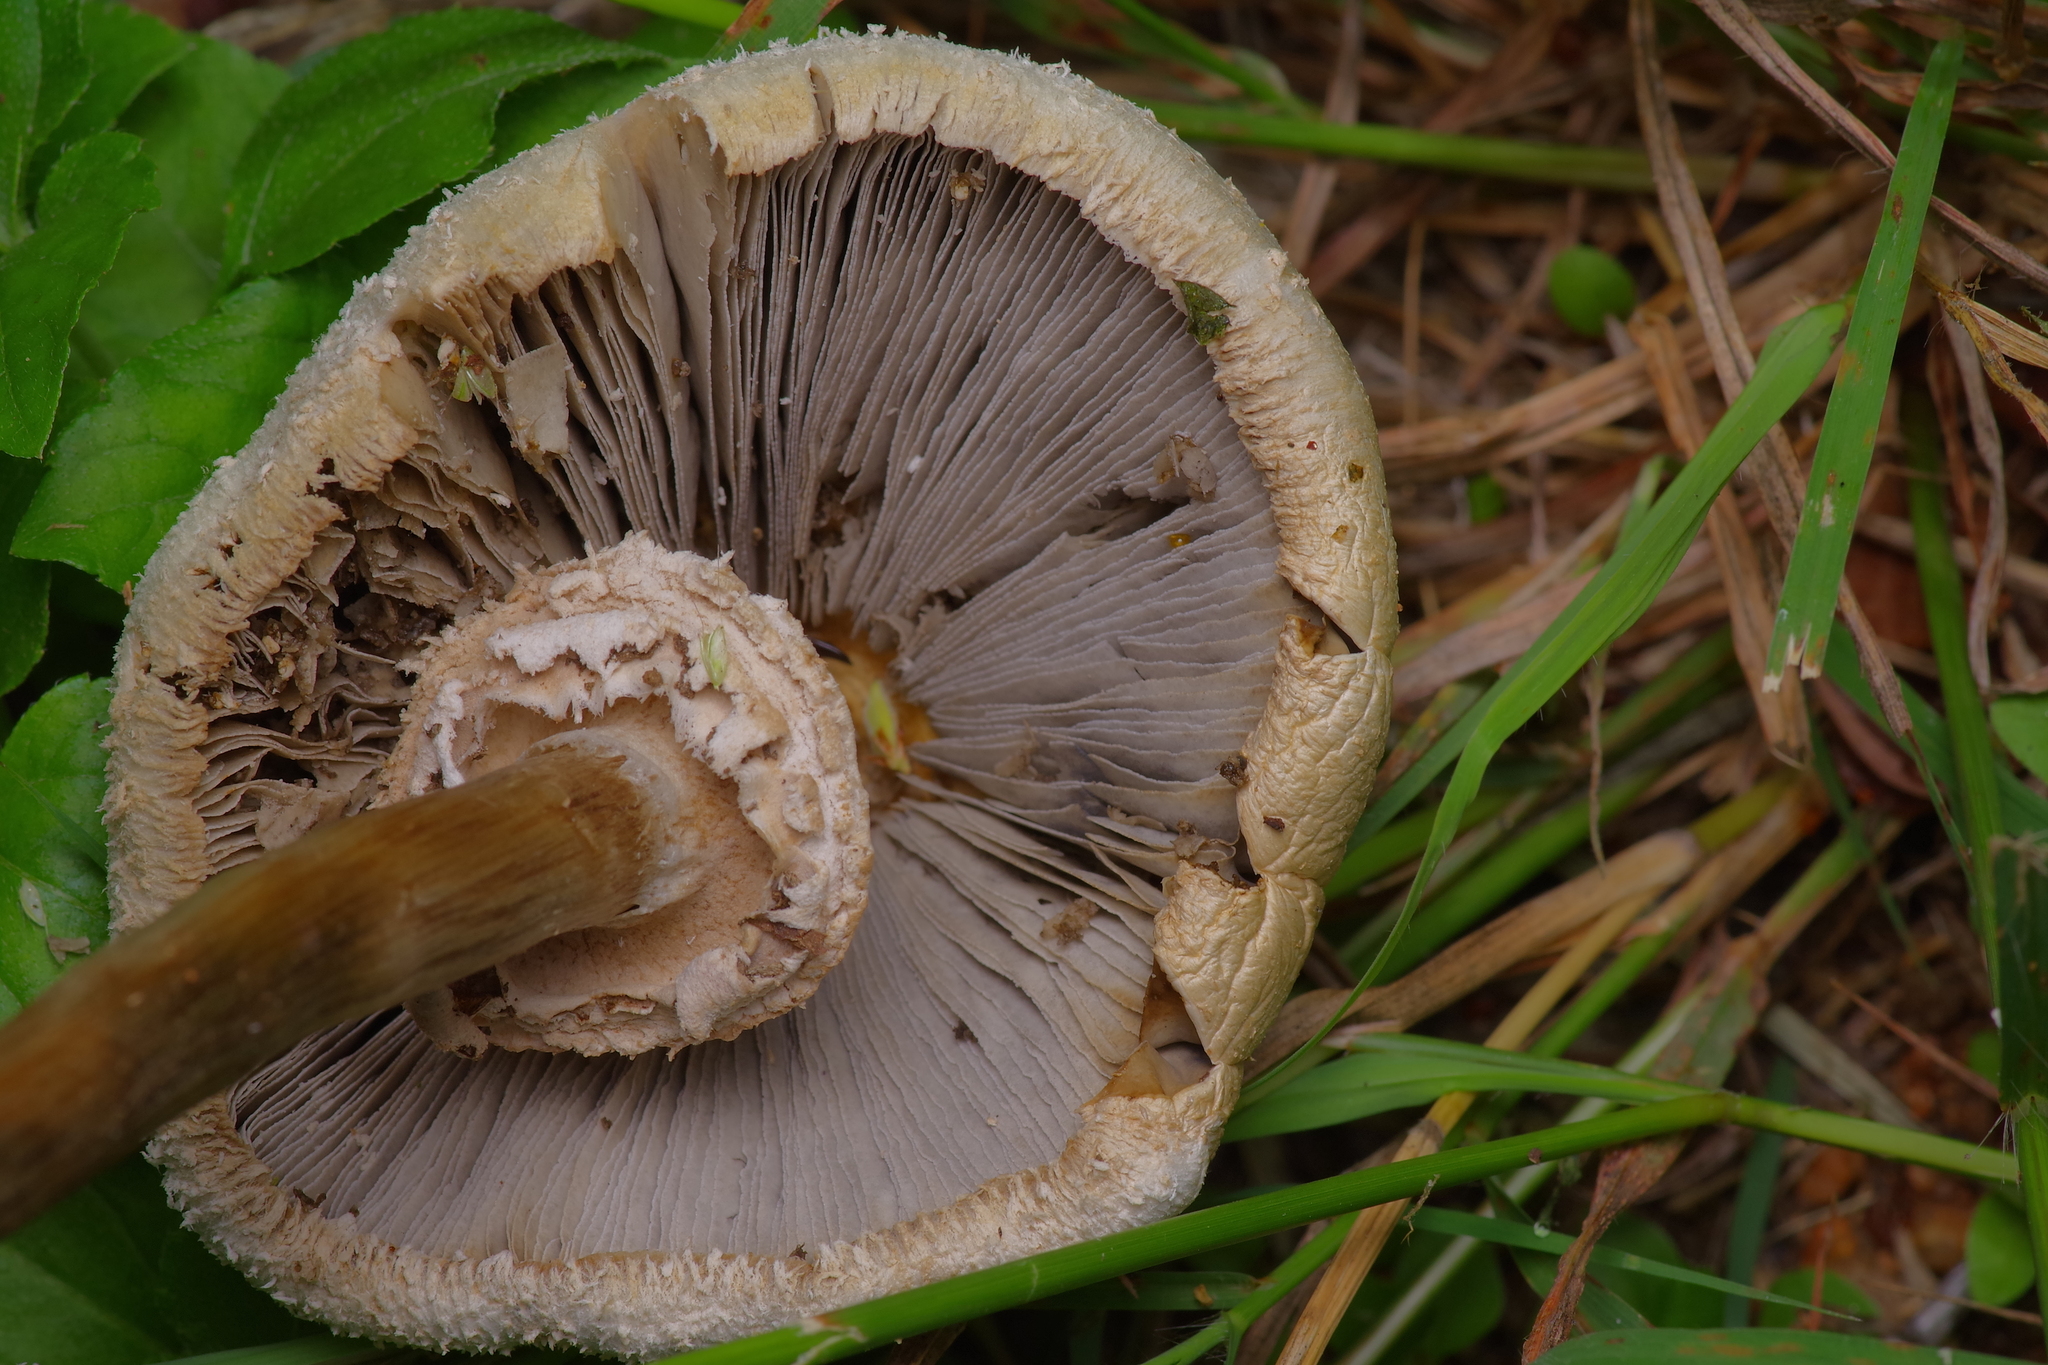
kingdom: Fungi
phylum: Basidiomycota
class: Agaricomycetes
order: Agaricales
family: Agaricaceae
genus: Chlorophyllum
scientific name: Chlorophyllum molybdites
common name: False parasol
